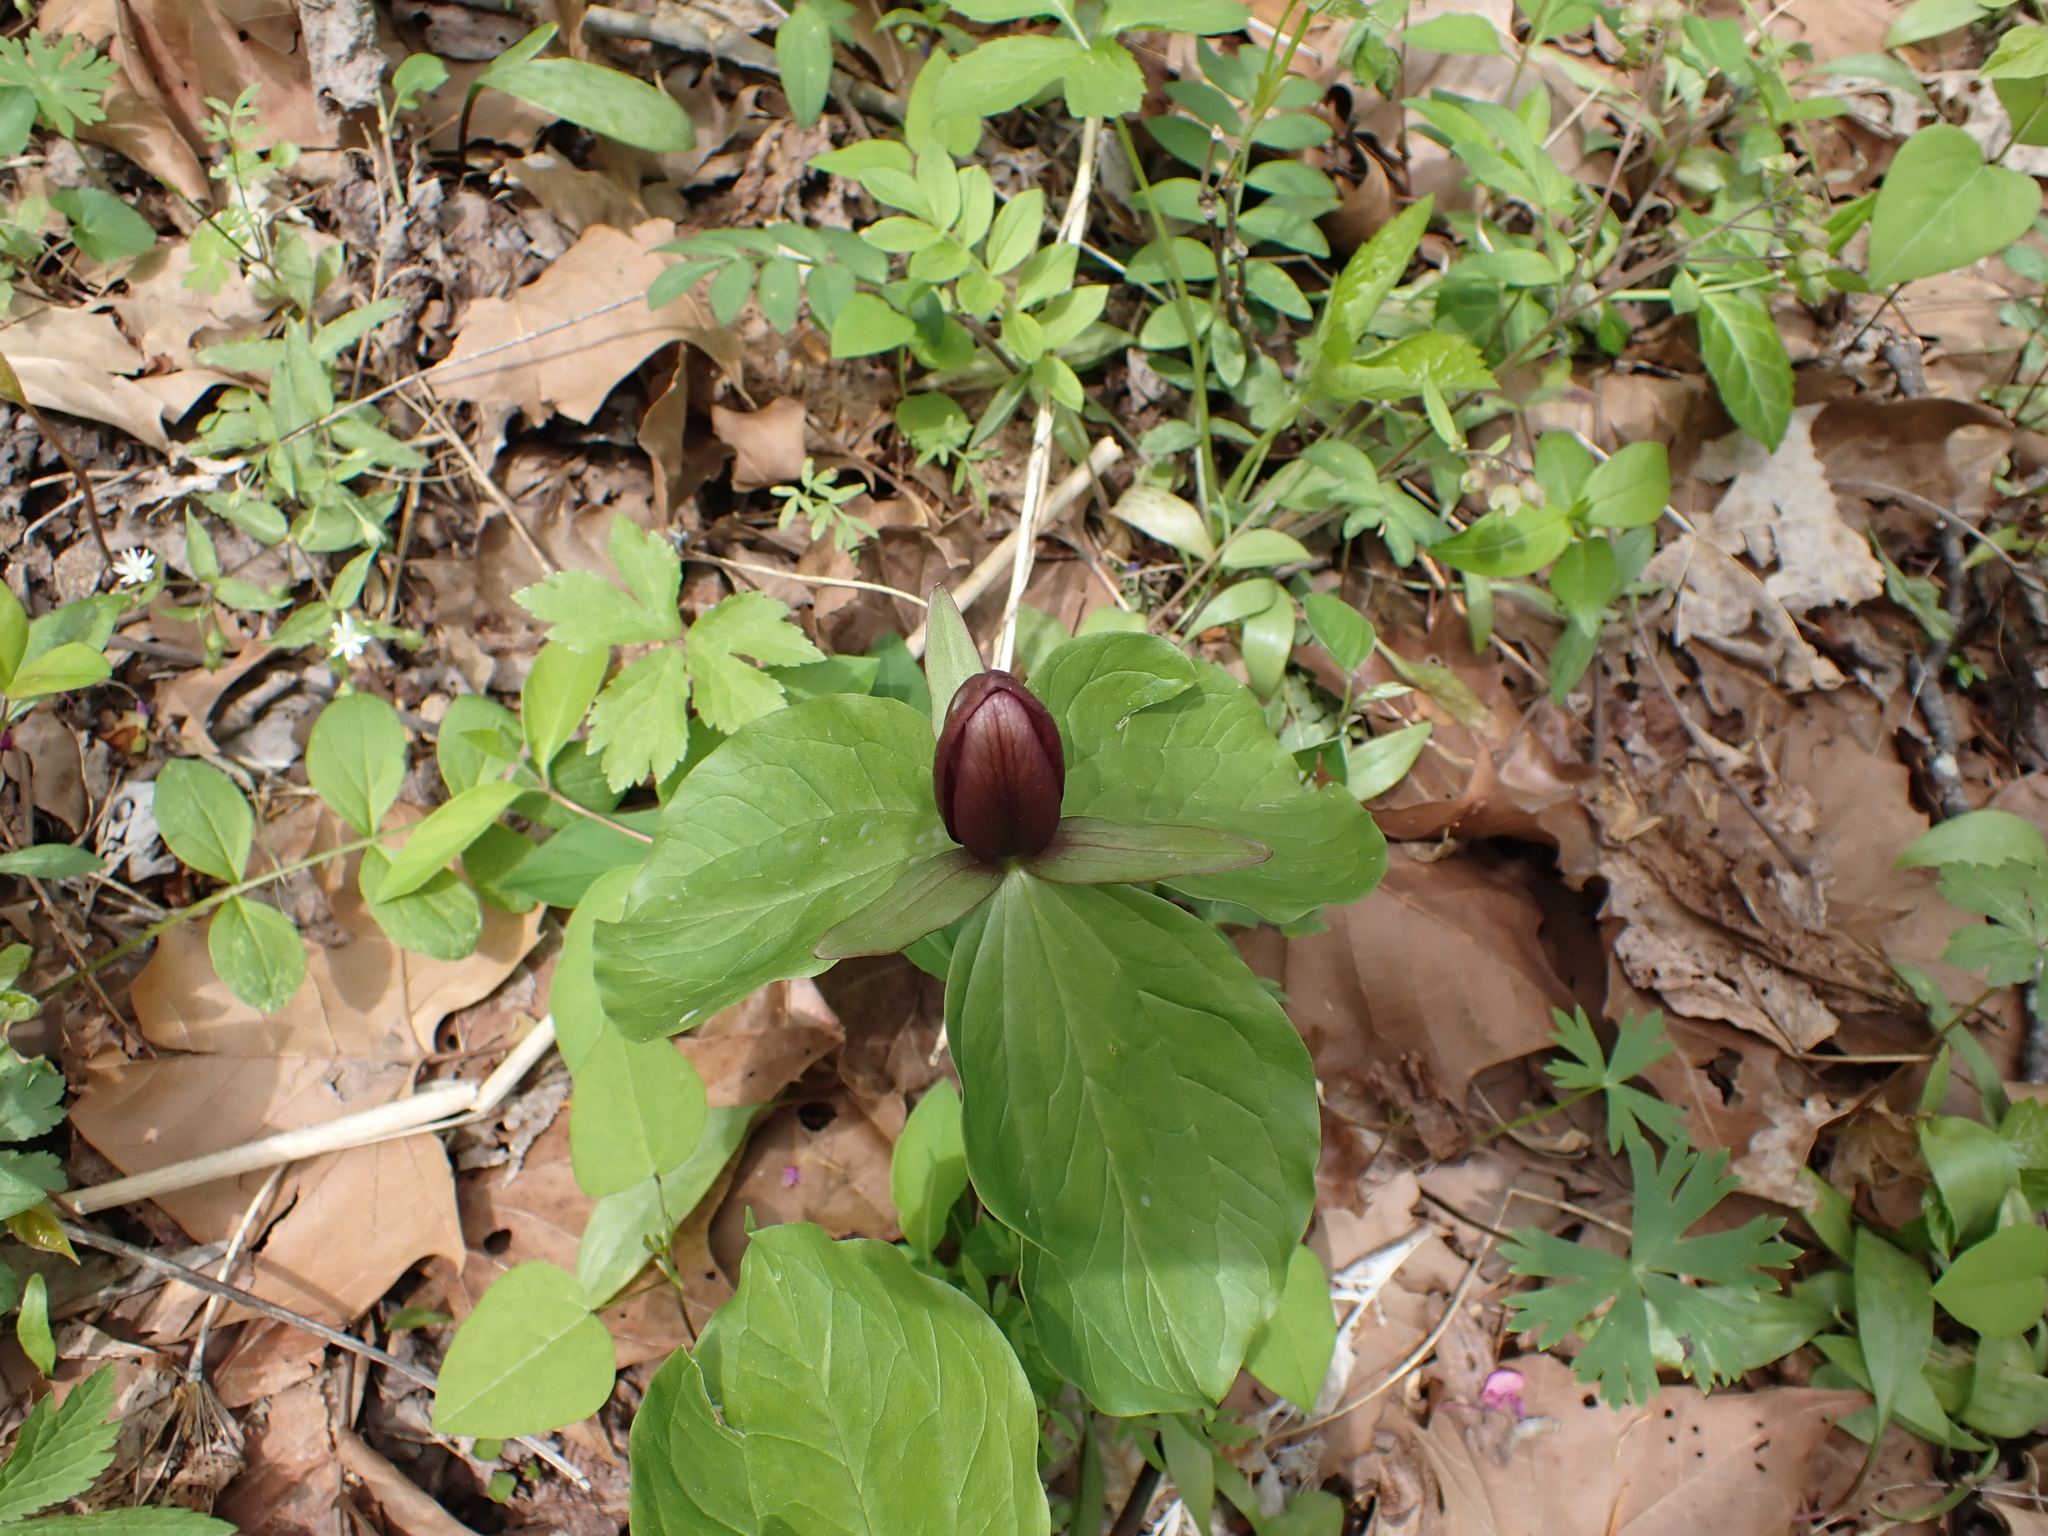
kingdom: Plantae
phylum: Tracheophyta
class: Liliopsida
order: Liliales
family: Melanthiaceae
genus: Trillium
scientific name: Trillium sessile
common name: Sessile trillium
